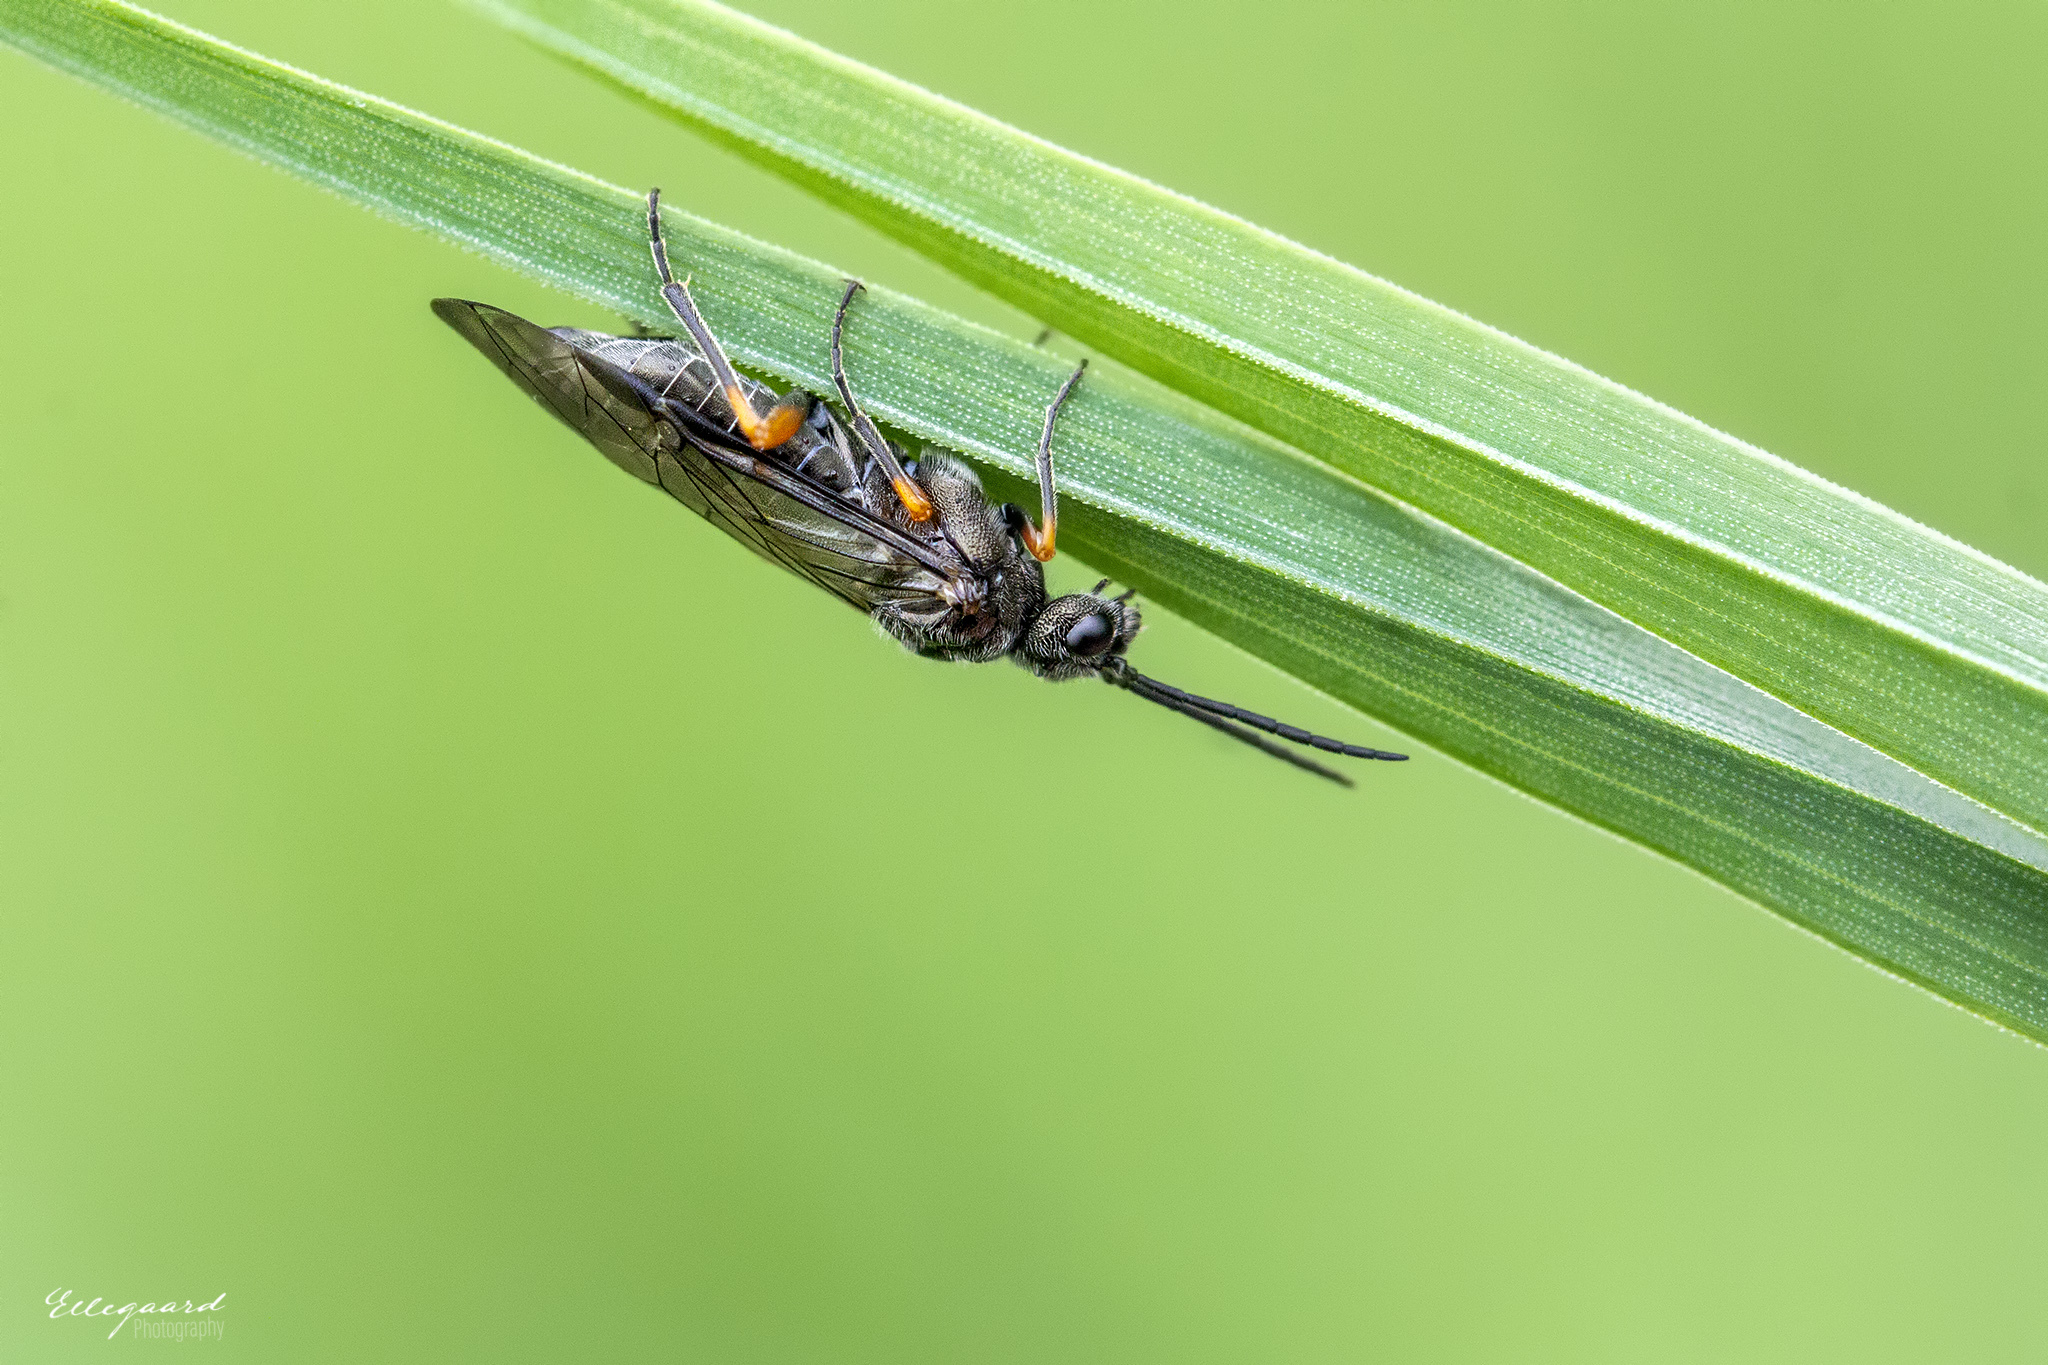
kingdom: Animalia
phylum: Arthropoda
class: Insecta
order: Hymenoptera
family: Tenthredinidae
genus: Dolerus
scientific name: Dolerus puncticollis
